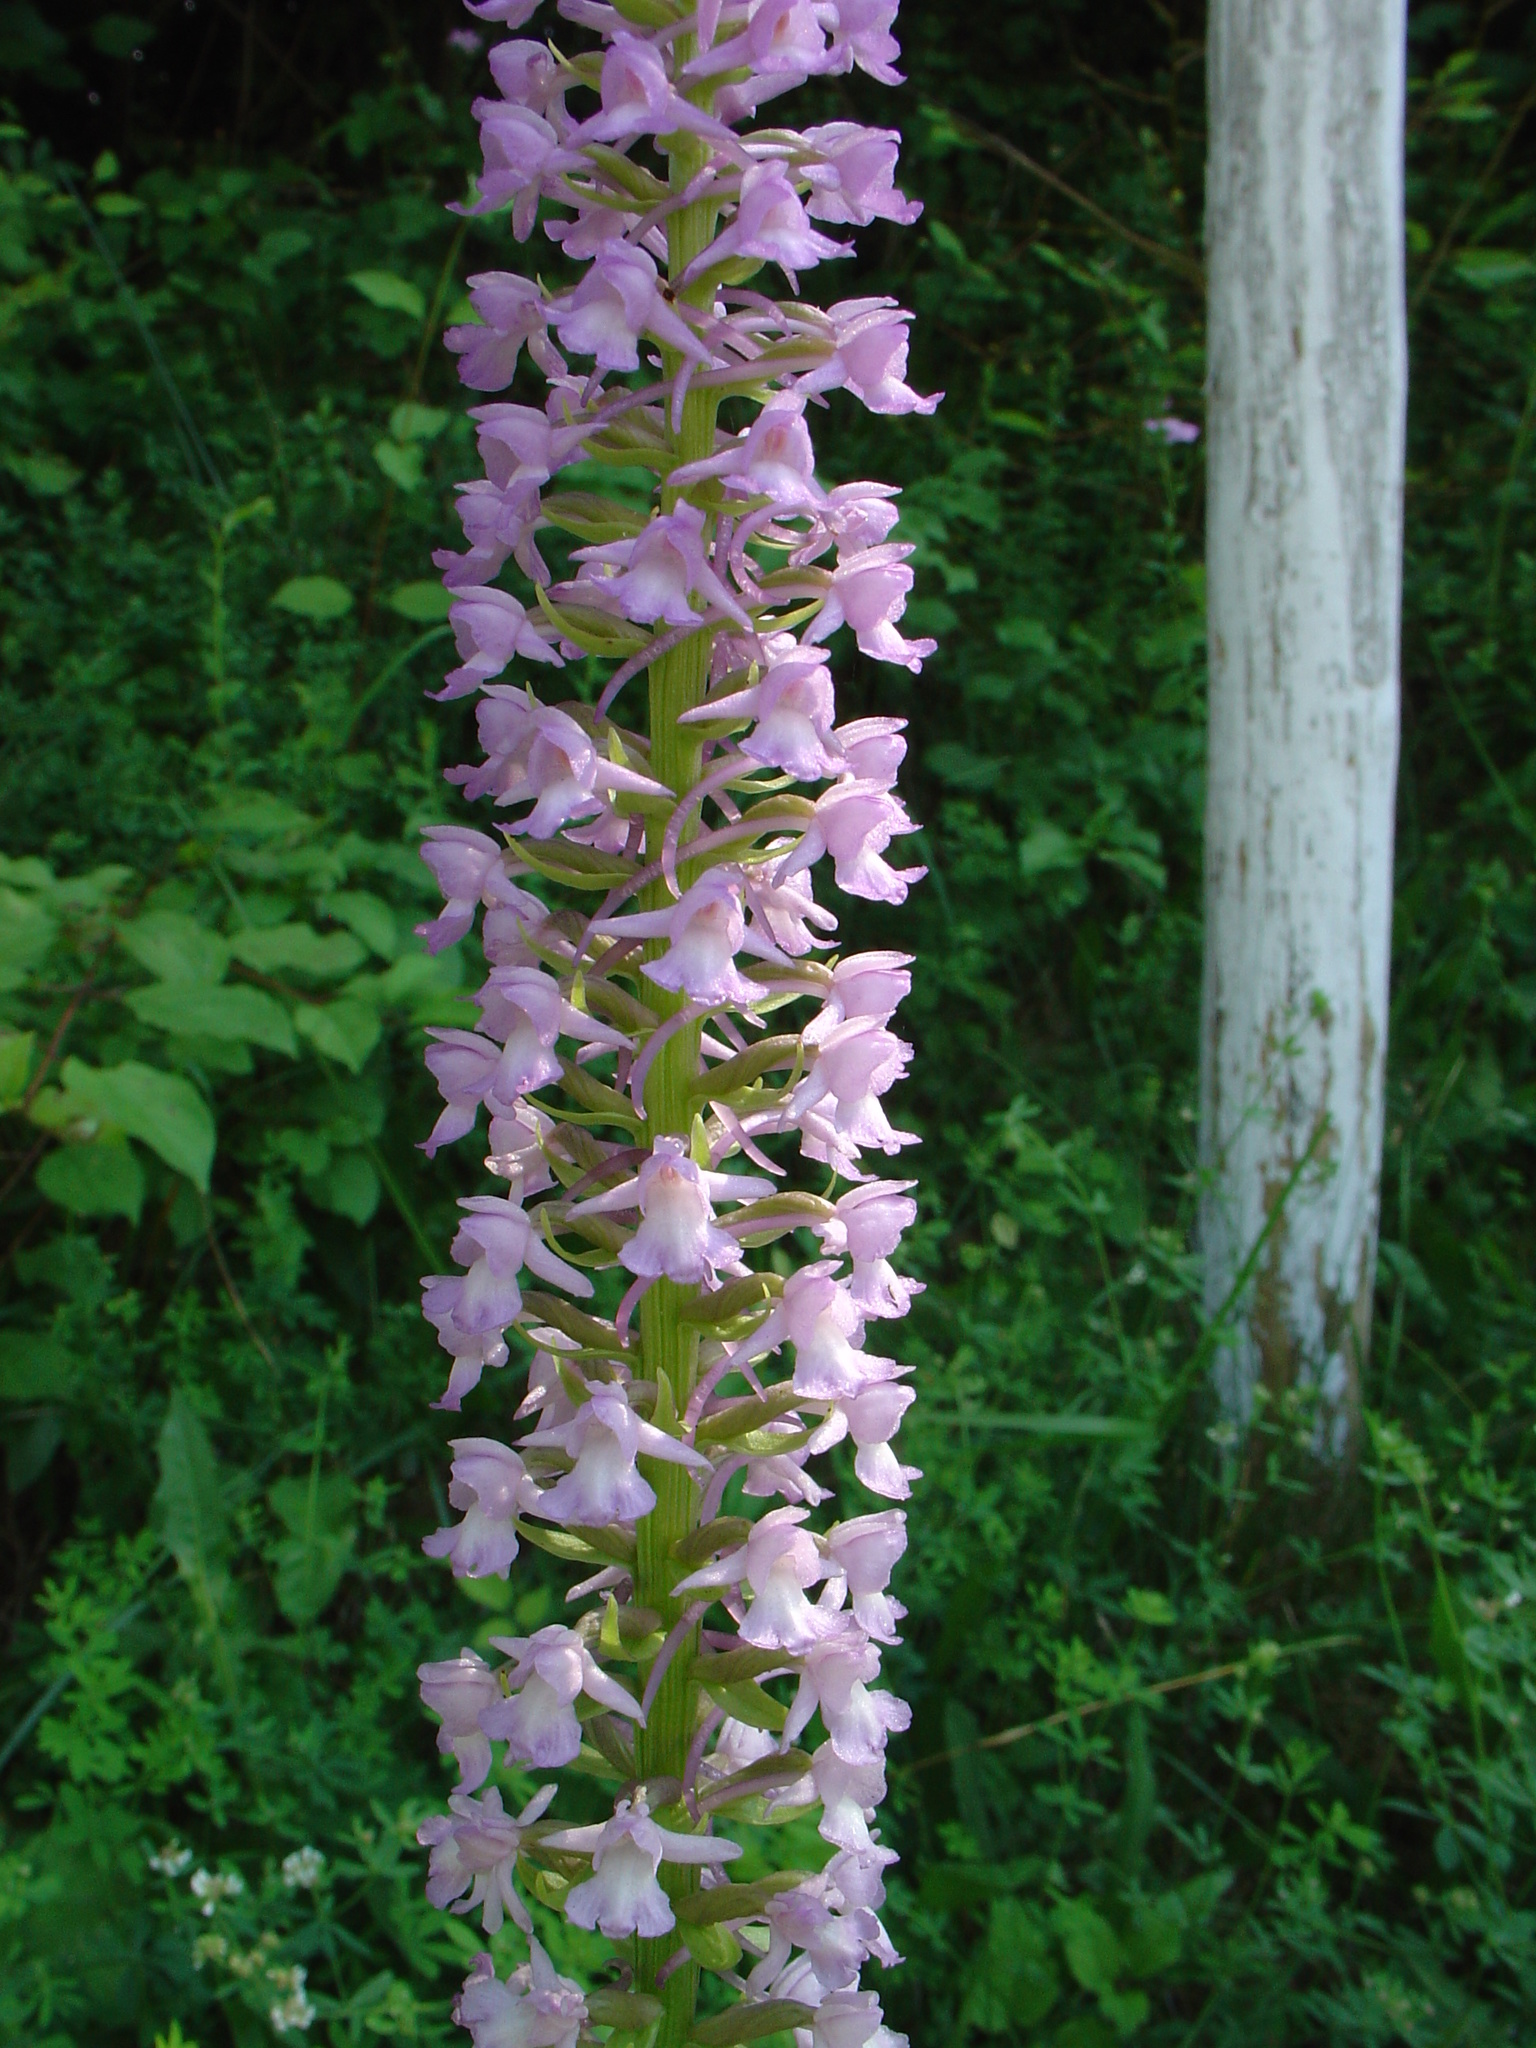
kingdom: Plantae
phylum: Tracheophyta
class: Liliopsida
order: Asparagales
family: Orchidaceae
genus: Gymnadenia
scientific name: Gymnadenia conopsea
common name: Fragrant orchid
